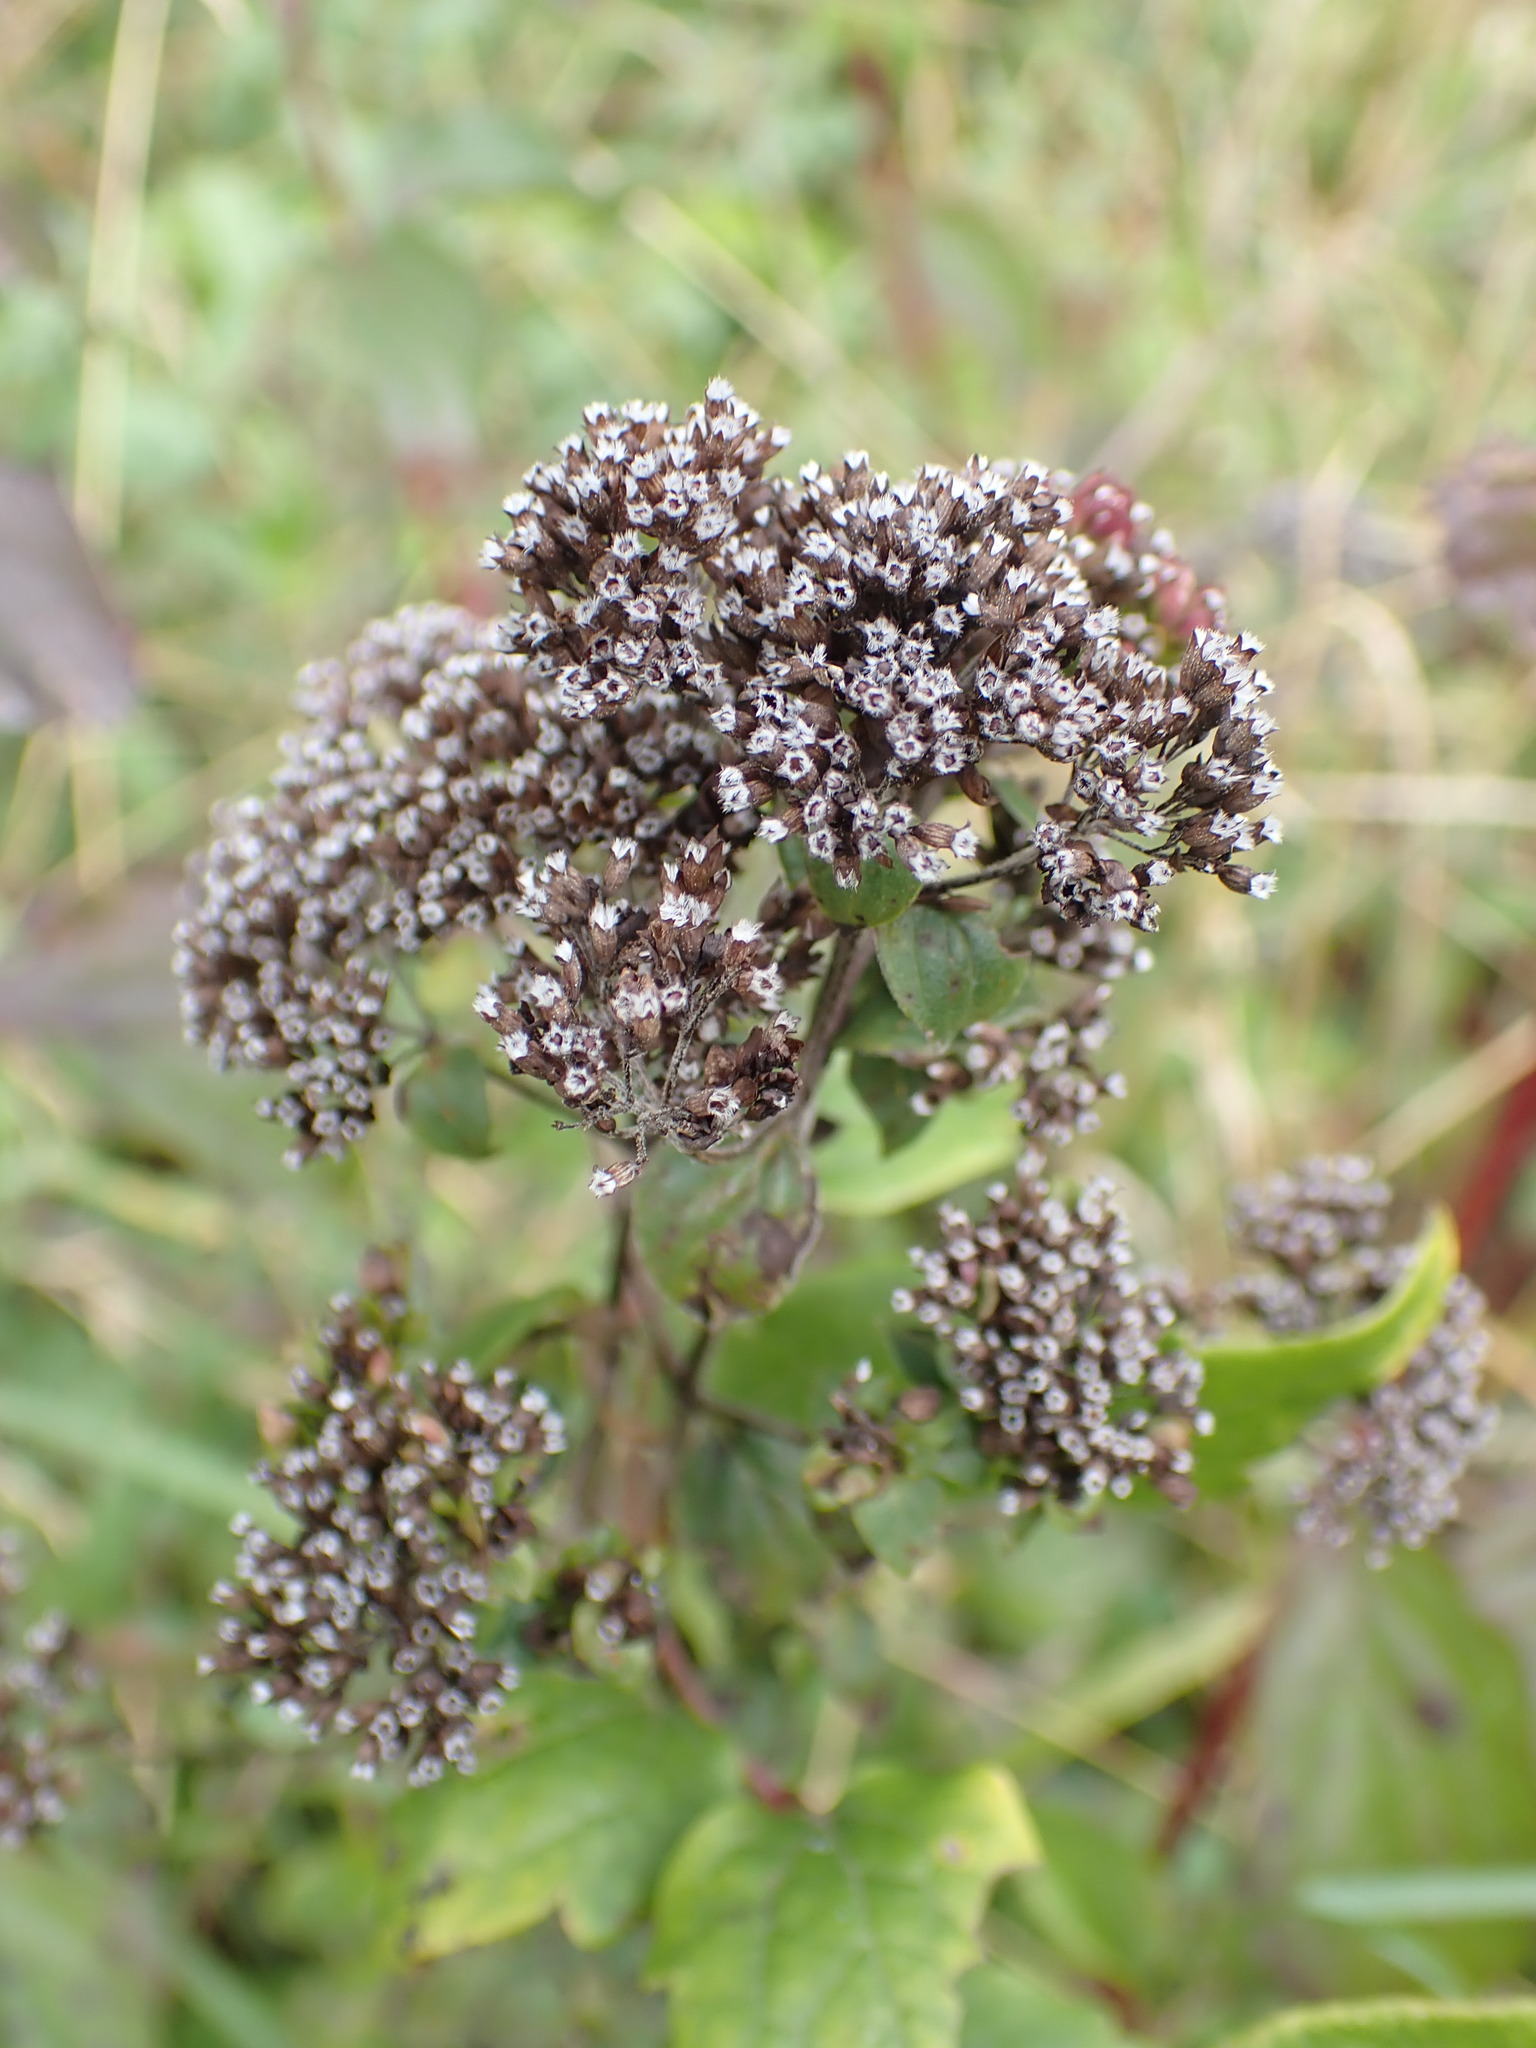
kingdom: Plantae
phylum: Tracheophyta
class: Magnoliopsida
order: Lamiales
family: Lamiaceae
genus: Origanum
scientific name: Origanum vulgare
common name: Wild marjoram
